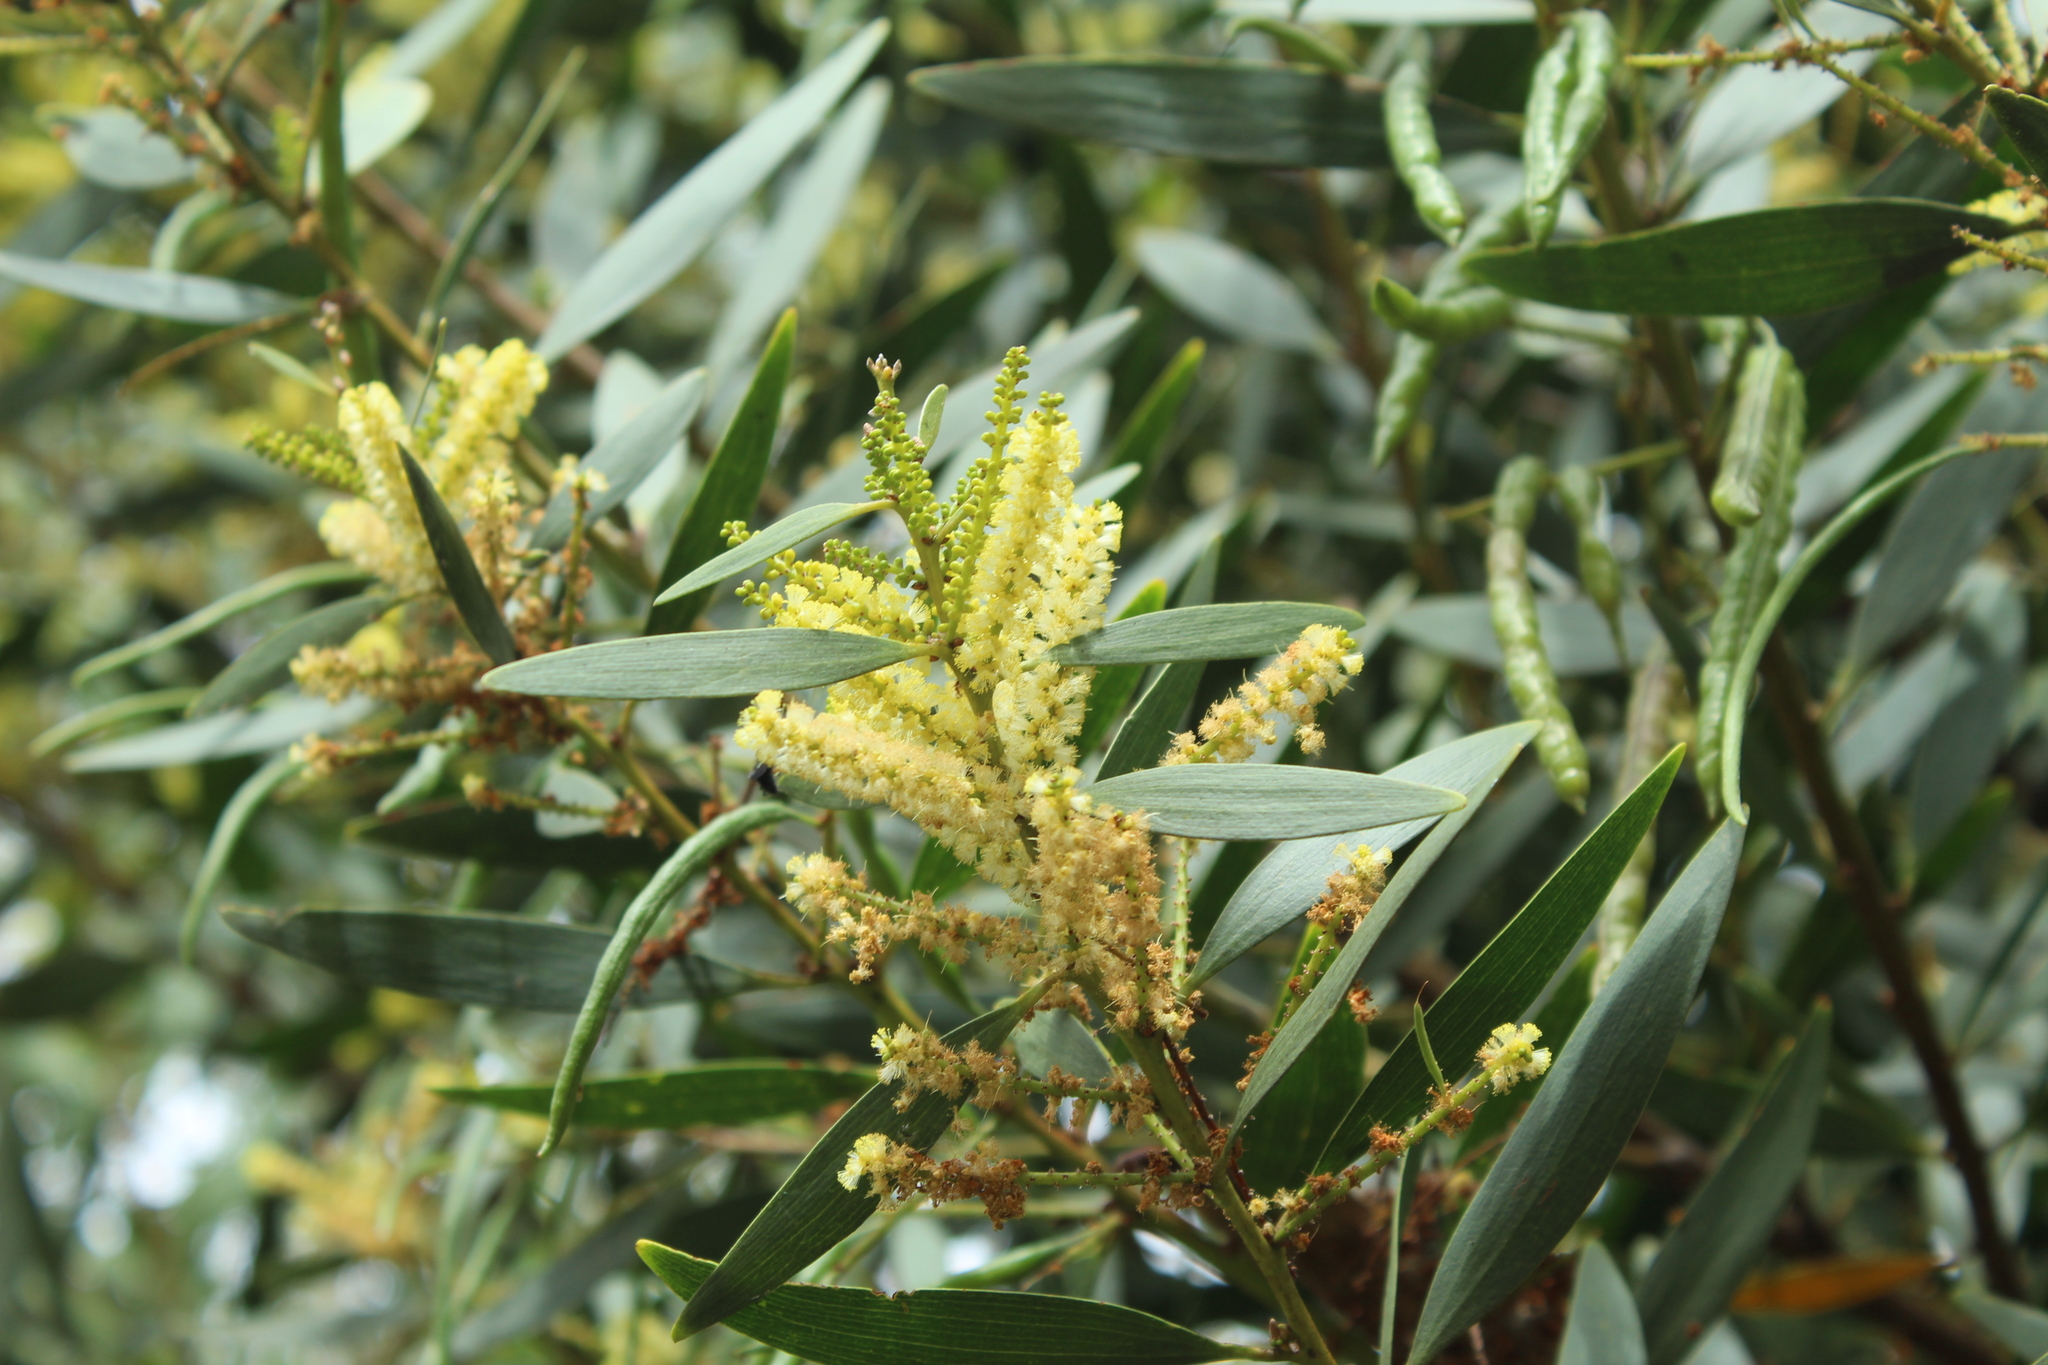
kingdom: Plantae
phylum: Tracheophyta
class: Magnoliopsida
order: Fabales
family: Fabaceae
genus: Acacia
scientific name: Acacia longifolia
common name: Sydney golden wattle
